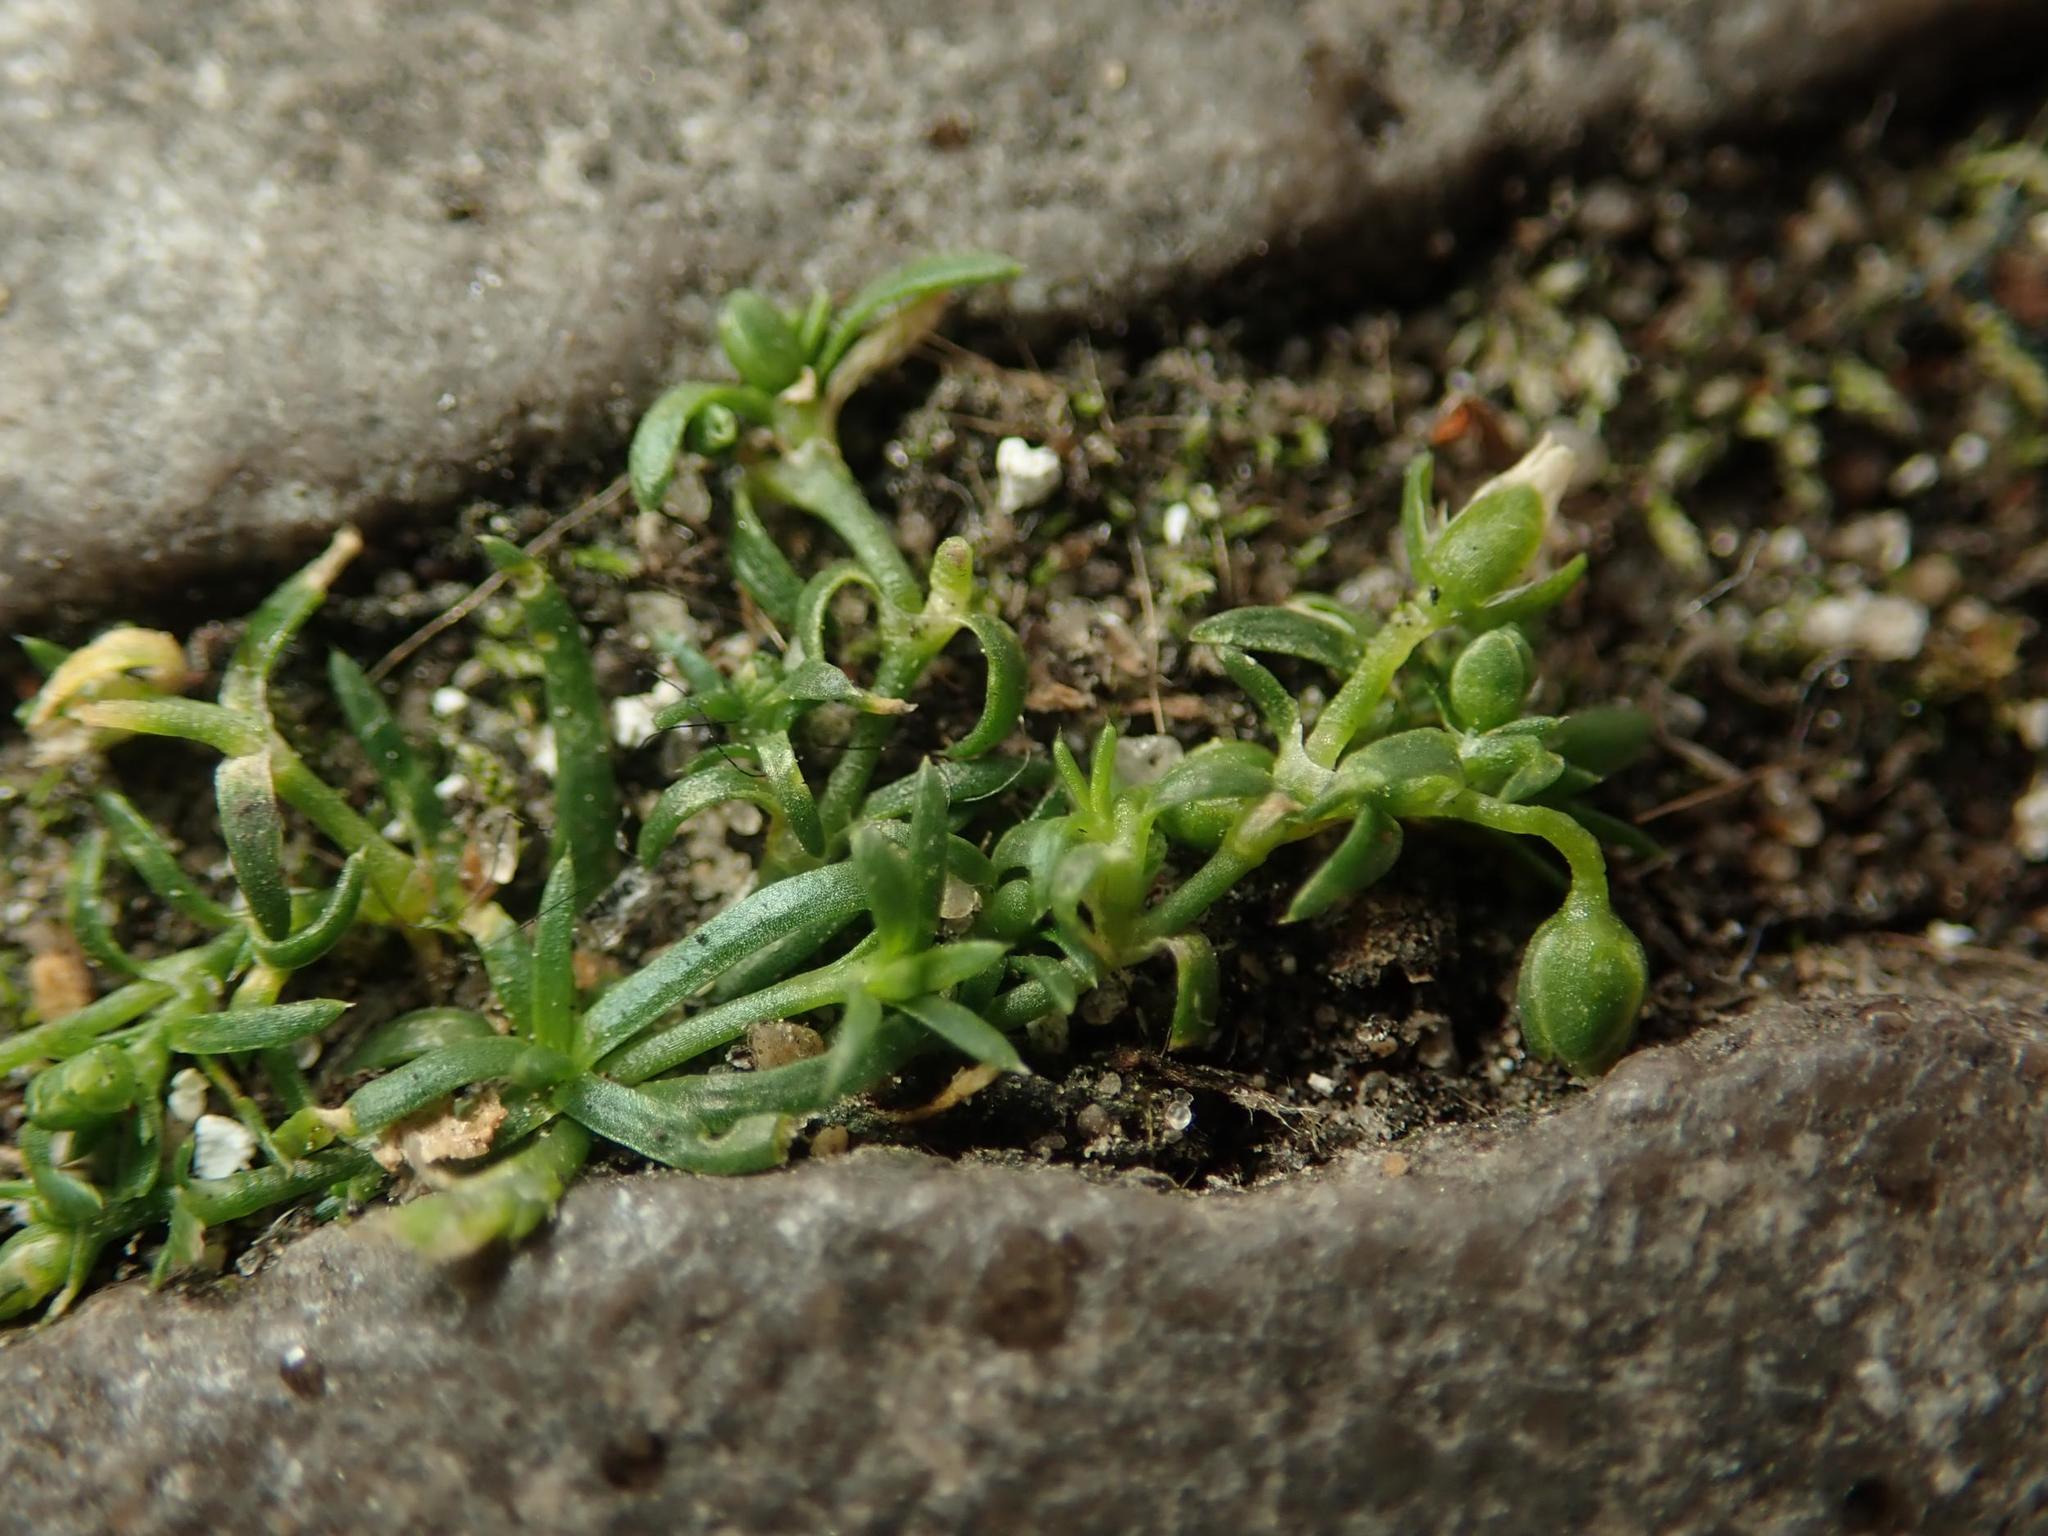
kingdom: Plantae
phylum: Tracheophyta
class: Magnoliopsida
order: Caryophyllales
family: Caryophyllaceae
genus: Sagina
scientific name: Sagina procumbens
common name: Procumbent pearlwort
